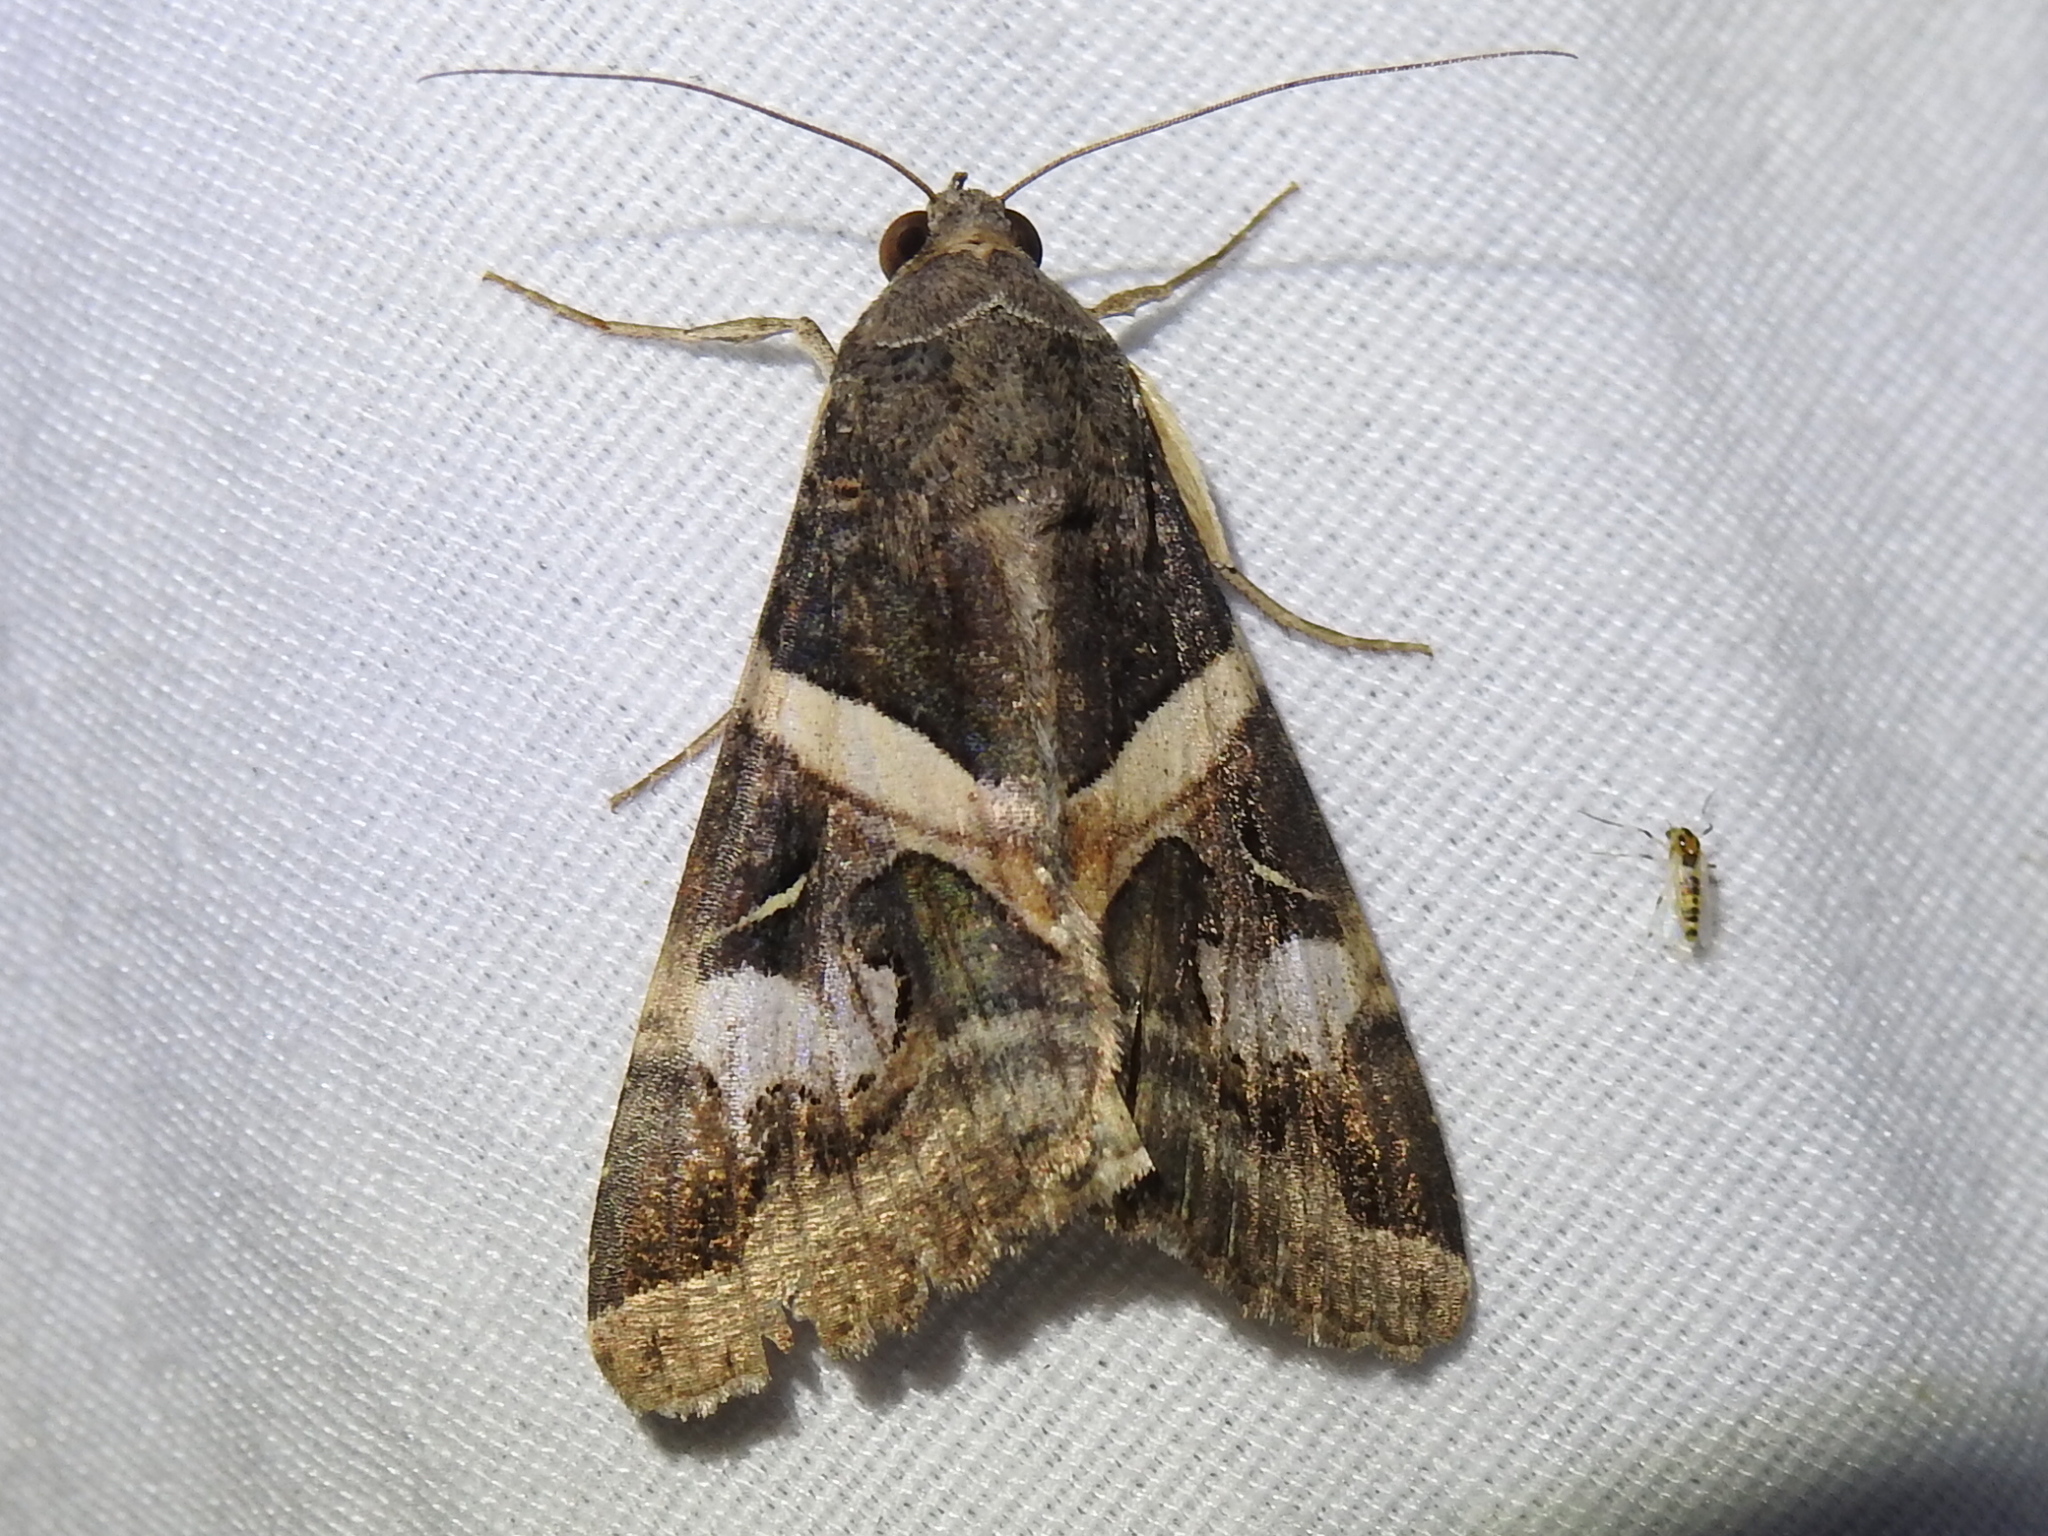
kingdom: Animalia
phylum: Arthropoda
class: Insecta
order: Lepidoptera
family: Erebidae
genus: Melipotis
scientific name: Melipotis indomita
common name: Moth
